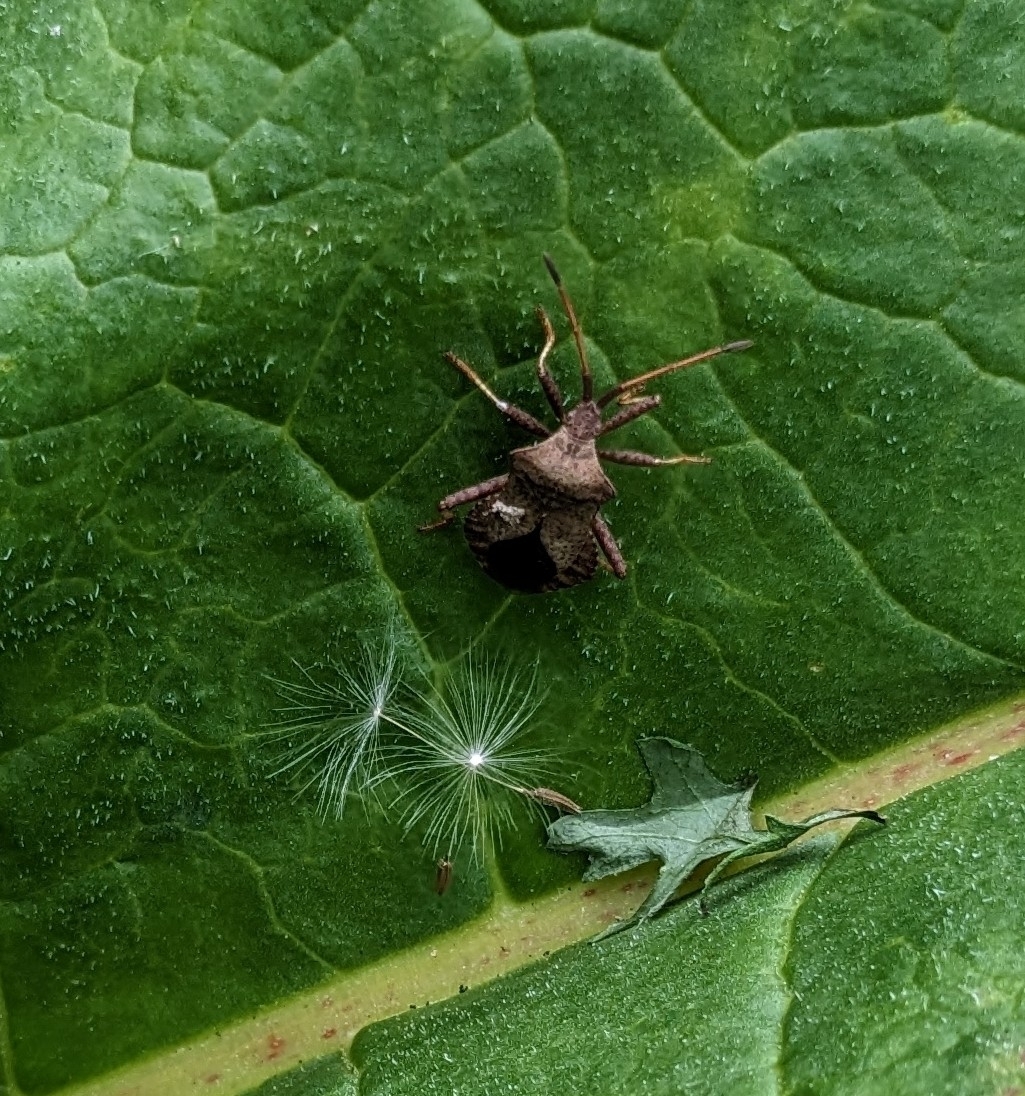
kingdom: Animalia
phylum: Arthropoda
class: Insecta
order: Hemiptera
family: Coreidae
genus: Coreus
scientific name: Coreus marginatus
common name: Dock bug
